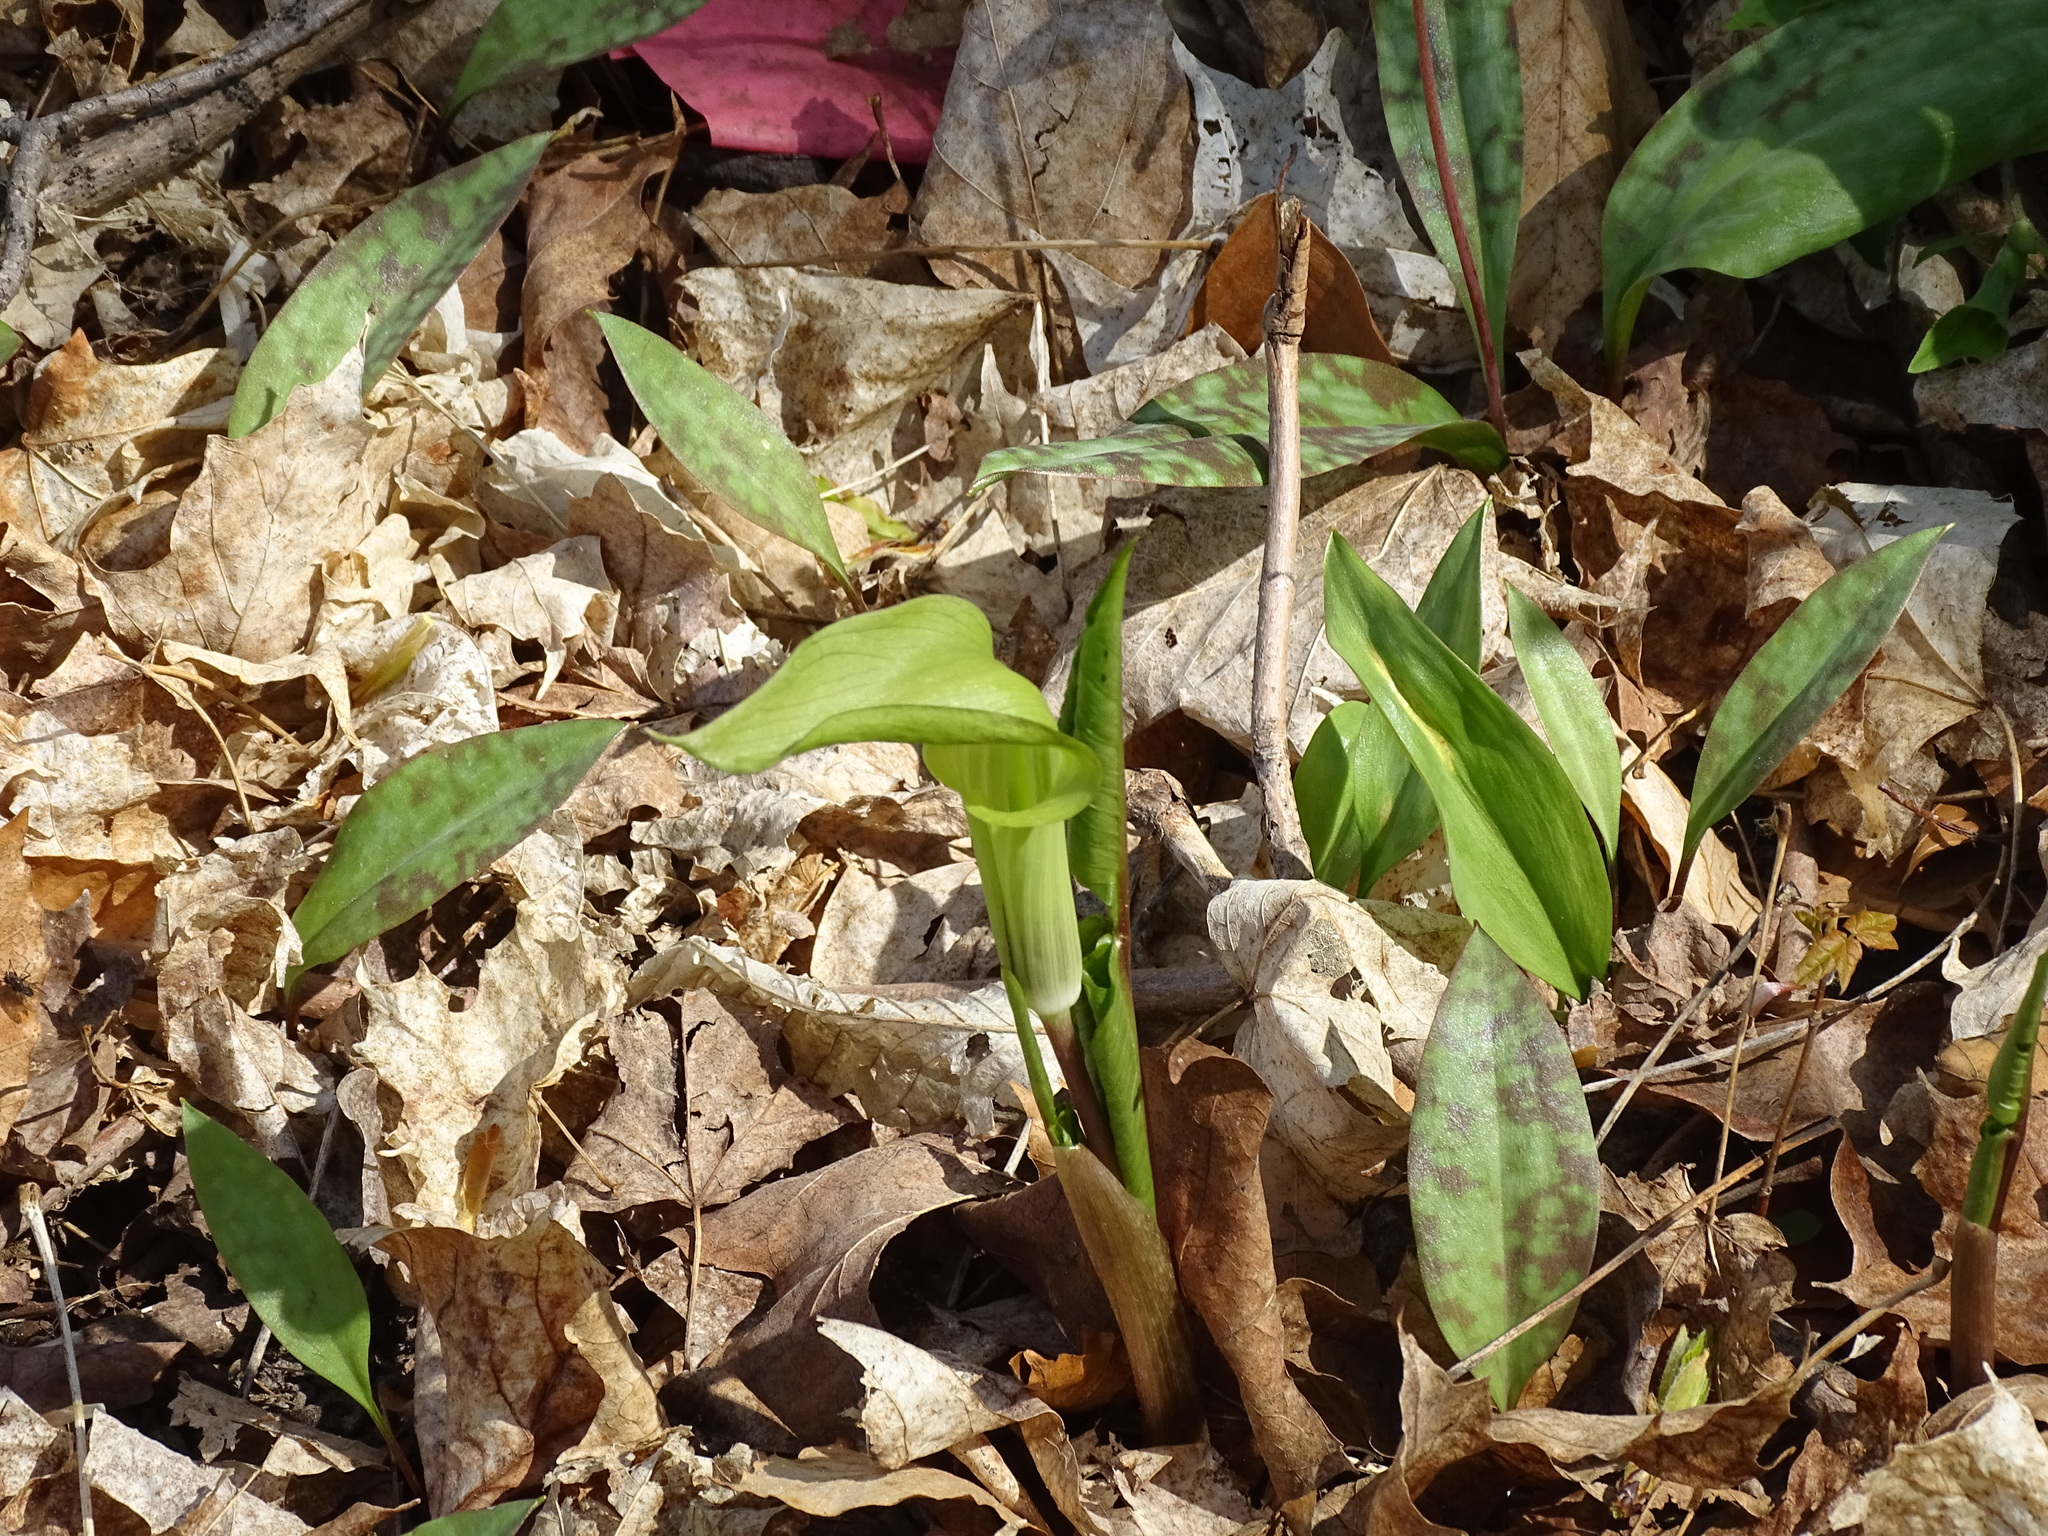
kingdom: Plantae
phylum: Tracheophyta
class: Liliopsida
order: Alismatales
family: Araceae
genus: Arisaema
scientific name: Arisaema triphyllum
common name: Jack-in-the-pulpit
